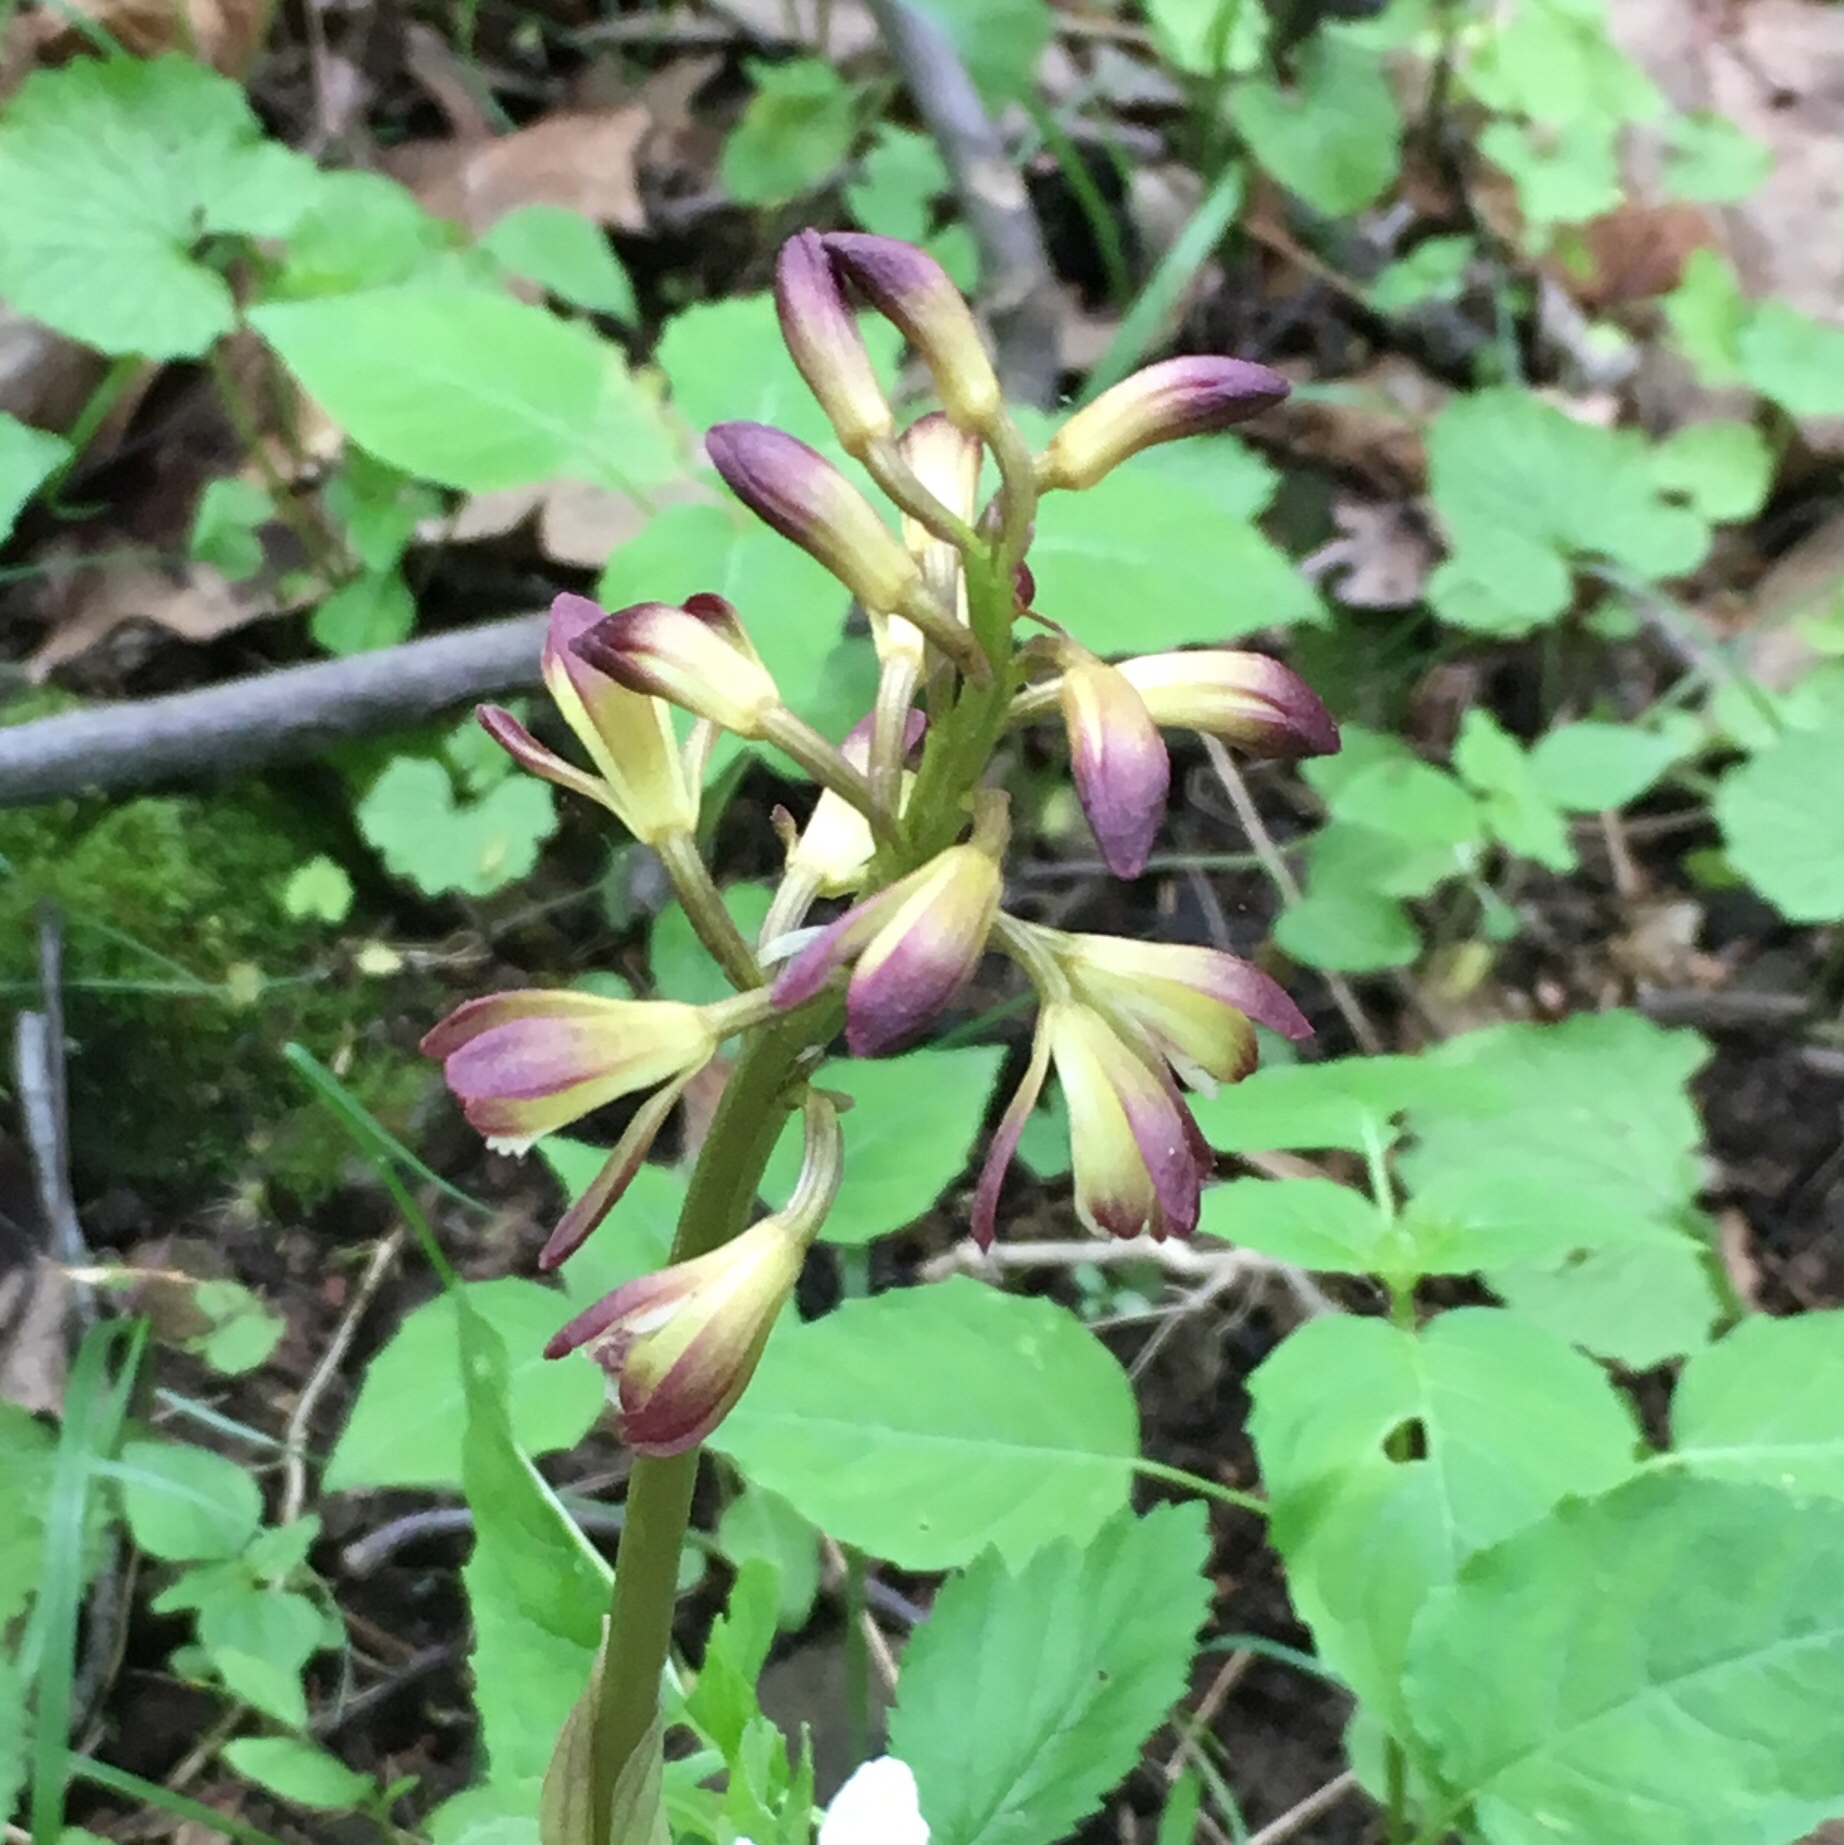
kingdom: Plantae
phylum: Tracheophyta
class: Liliopsida
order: Asparagales
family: Orchidaceae
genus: Aplectrum
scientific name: Aplectrum hyemale
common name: Adam-and-eve
